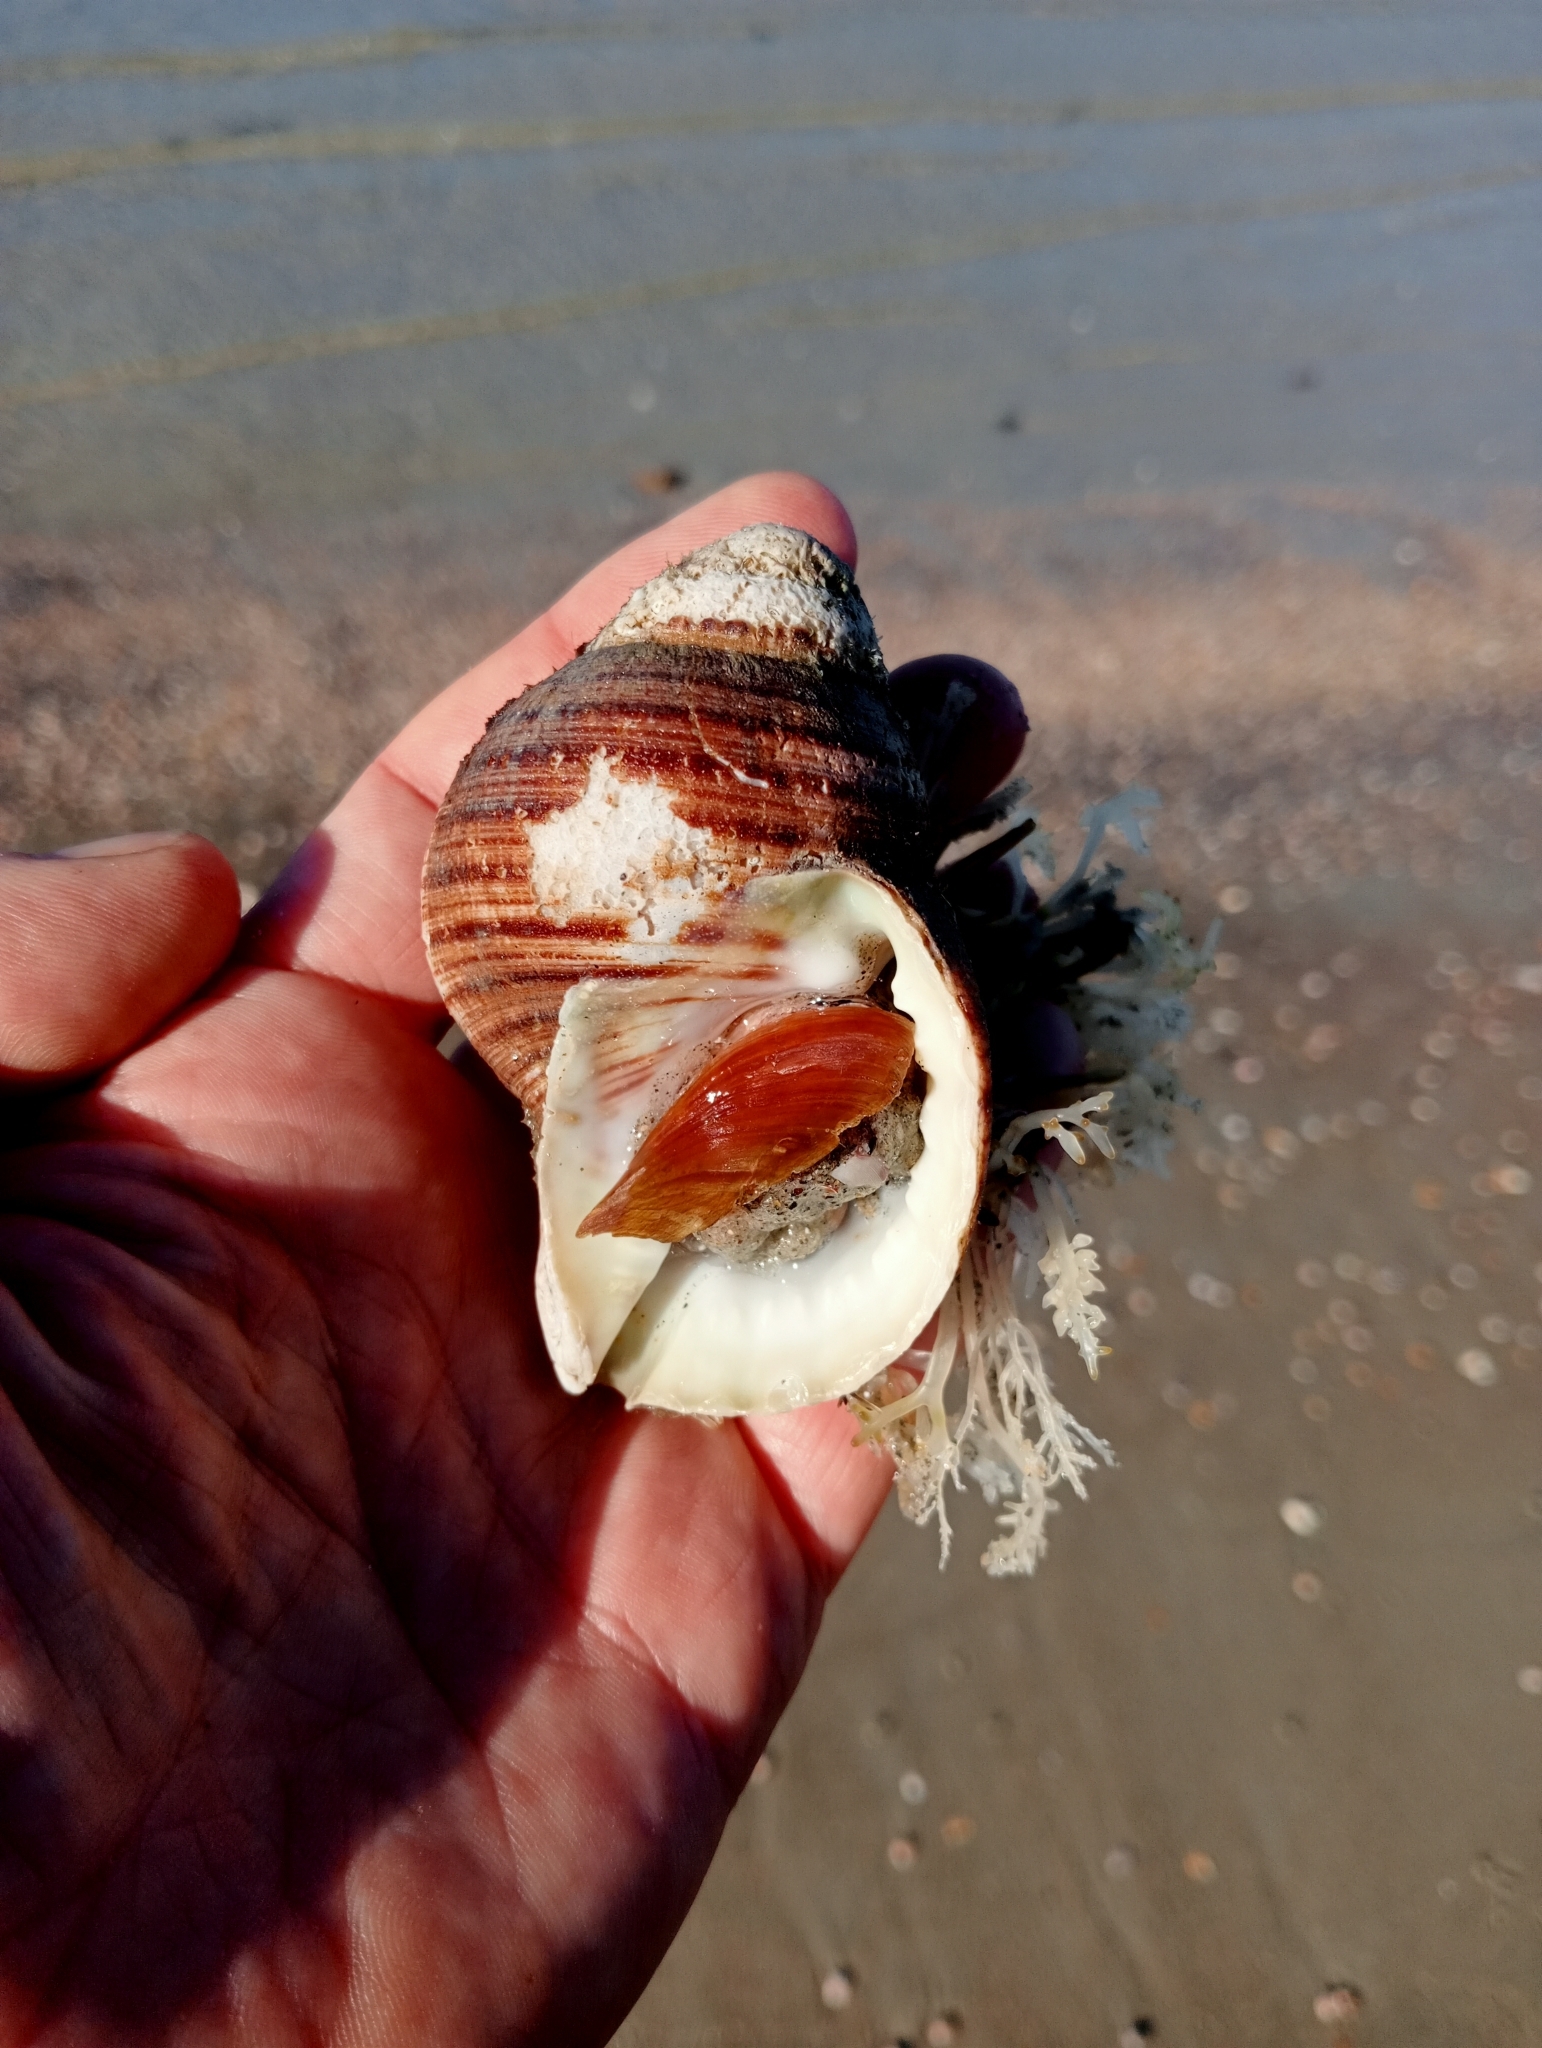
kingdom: Animalia
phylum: Mollusca
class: Gastropoda
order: Littorinimorpha
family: Cymatiidae
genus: Argobuccinum
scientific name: Argobuccinum pustulosum
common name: Pustular triton
